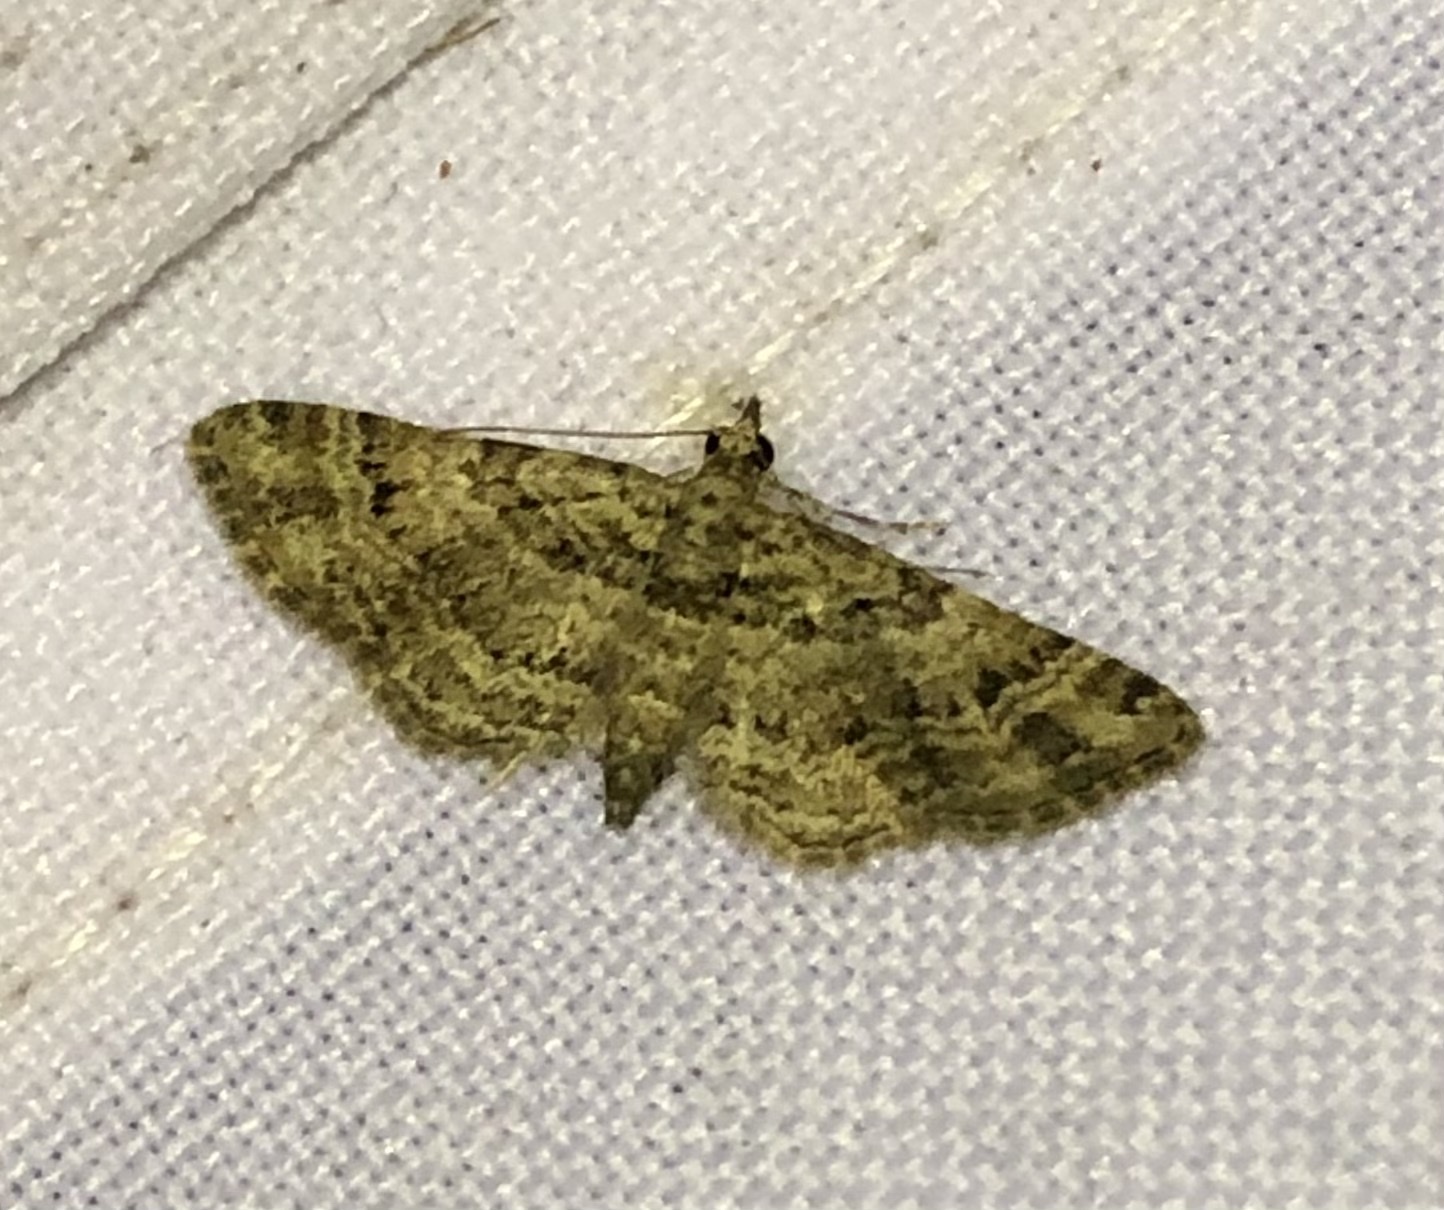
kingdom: Animalia
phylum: Arthropoda
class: Insecta
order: Lepidoptera
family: Geometridae
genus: Gymnoscelis
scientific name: Gymnoscelis rufifasciata
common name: Double-striped pug
